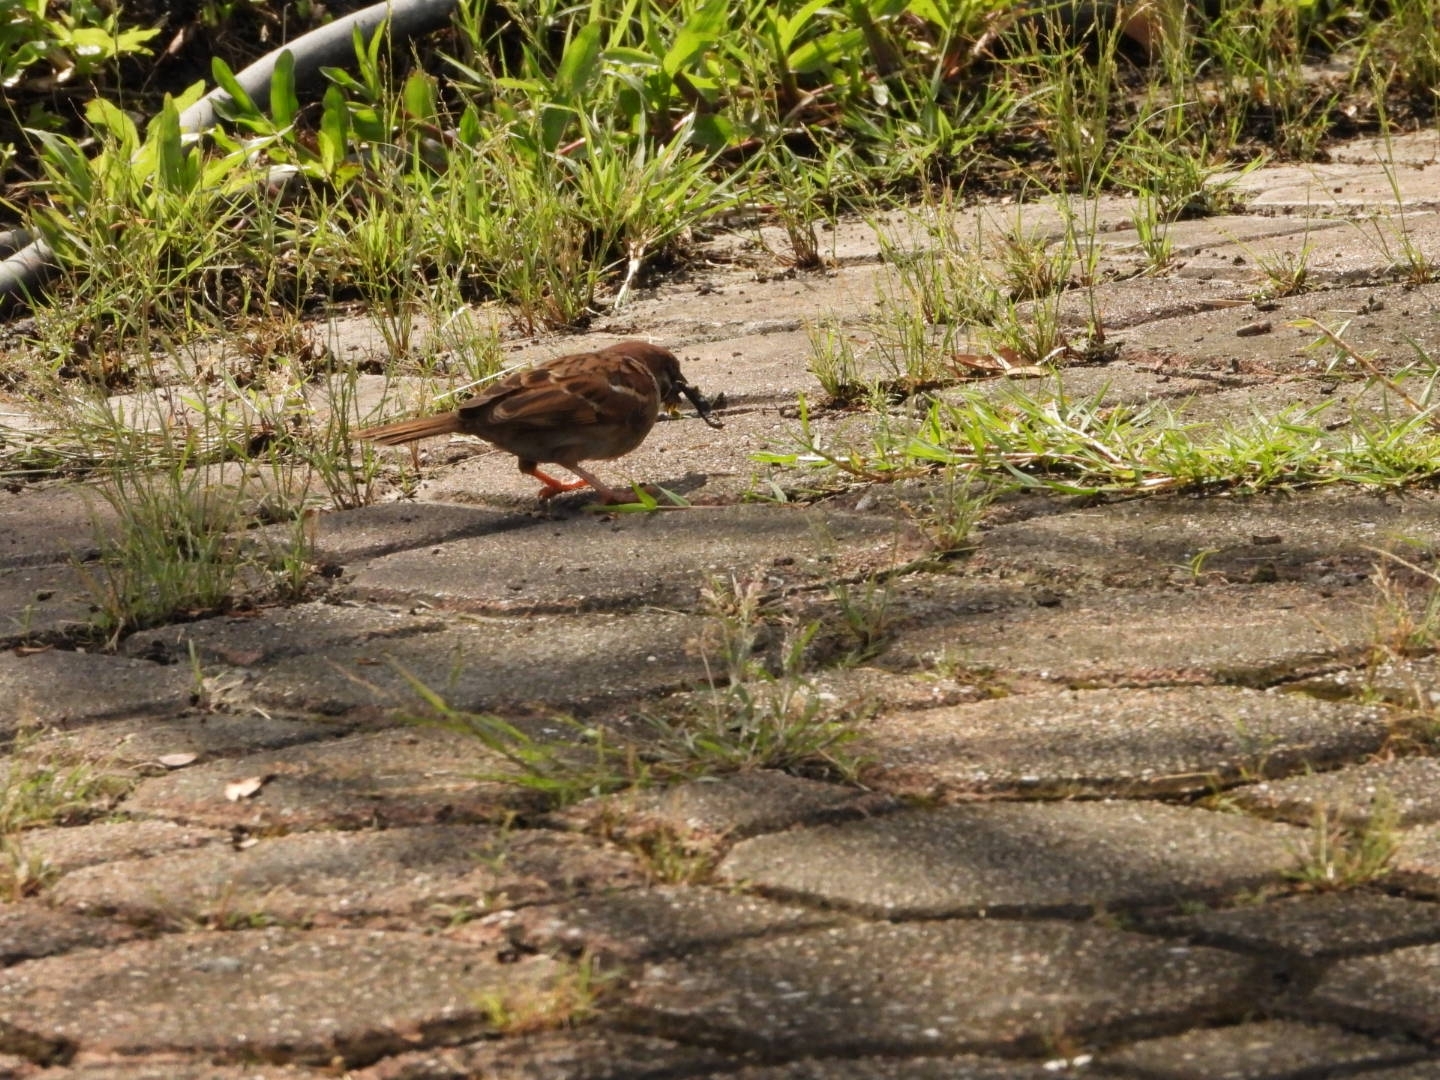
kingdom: Animalia
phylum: Chordata
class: Aves
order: Passeriformes
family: Passeridae
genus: Passer
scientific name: Passer montanus
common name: Eurasian tree sparrow
